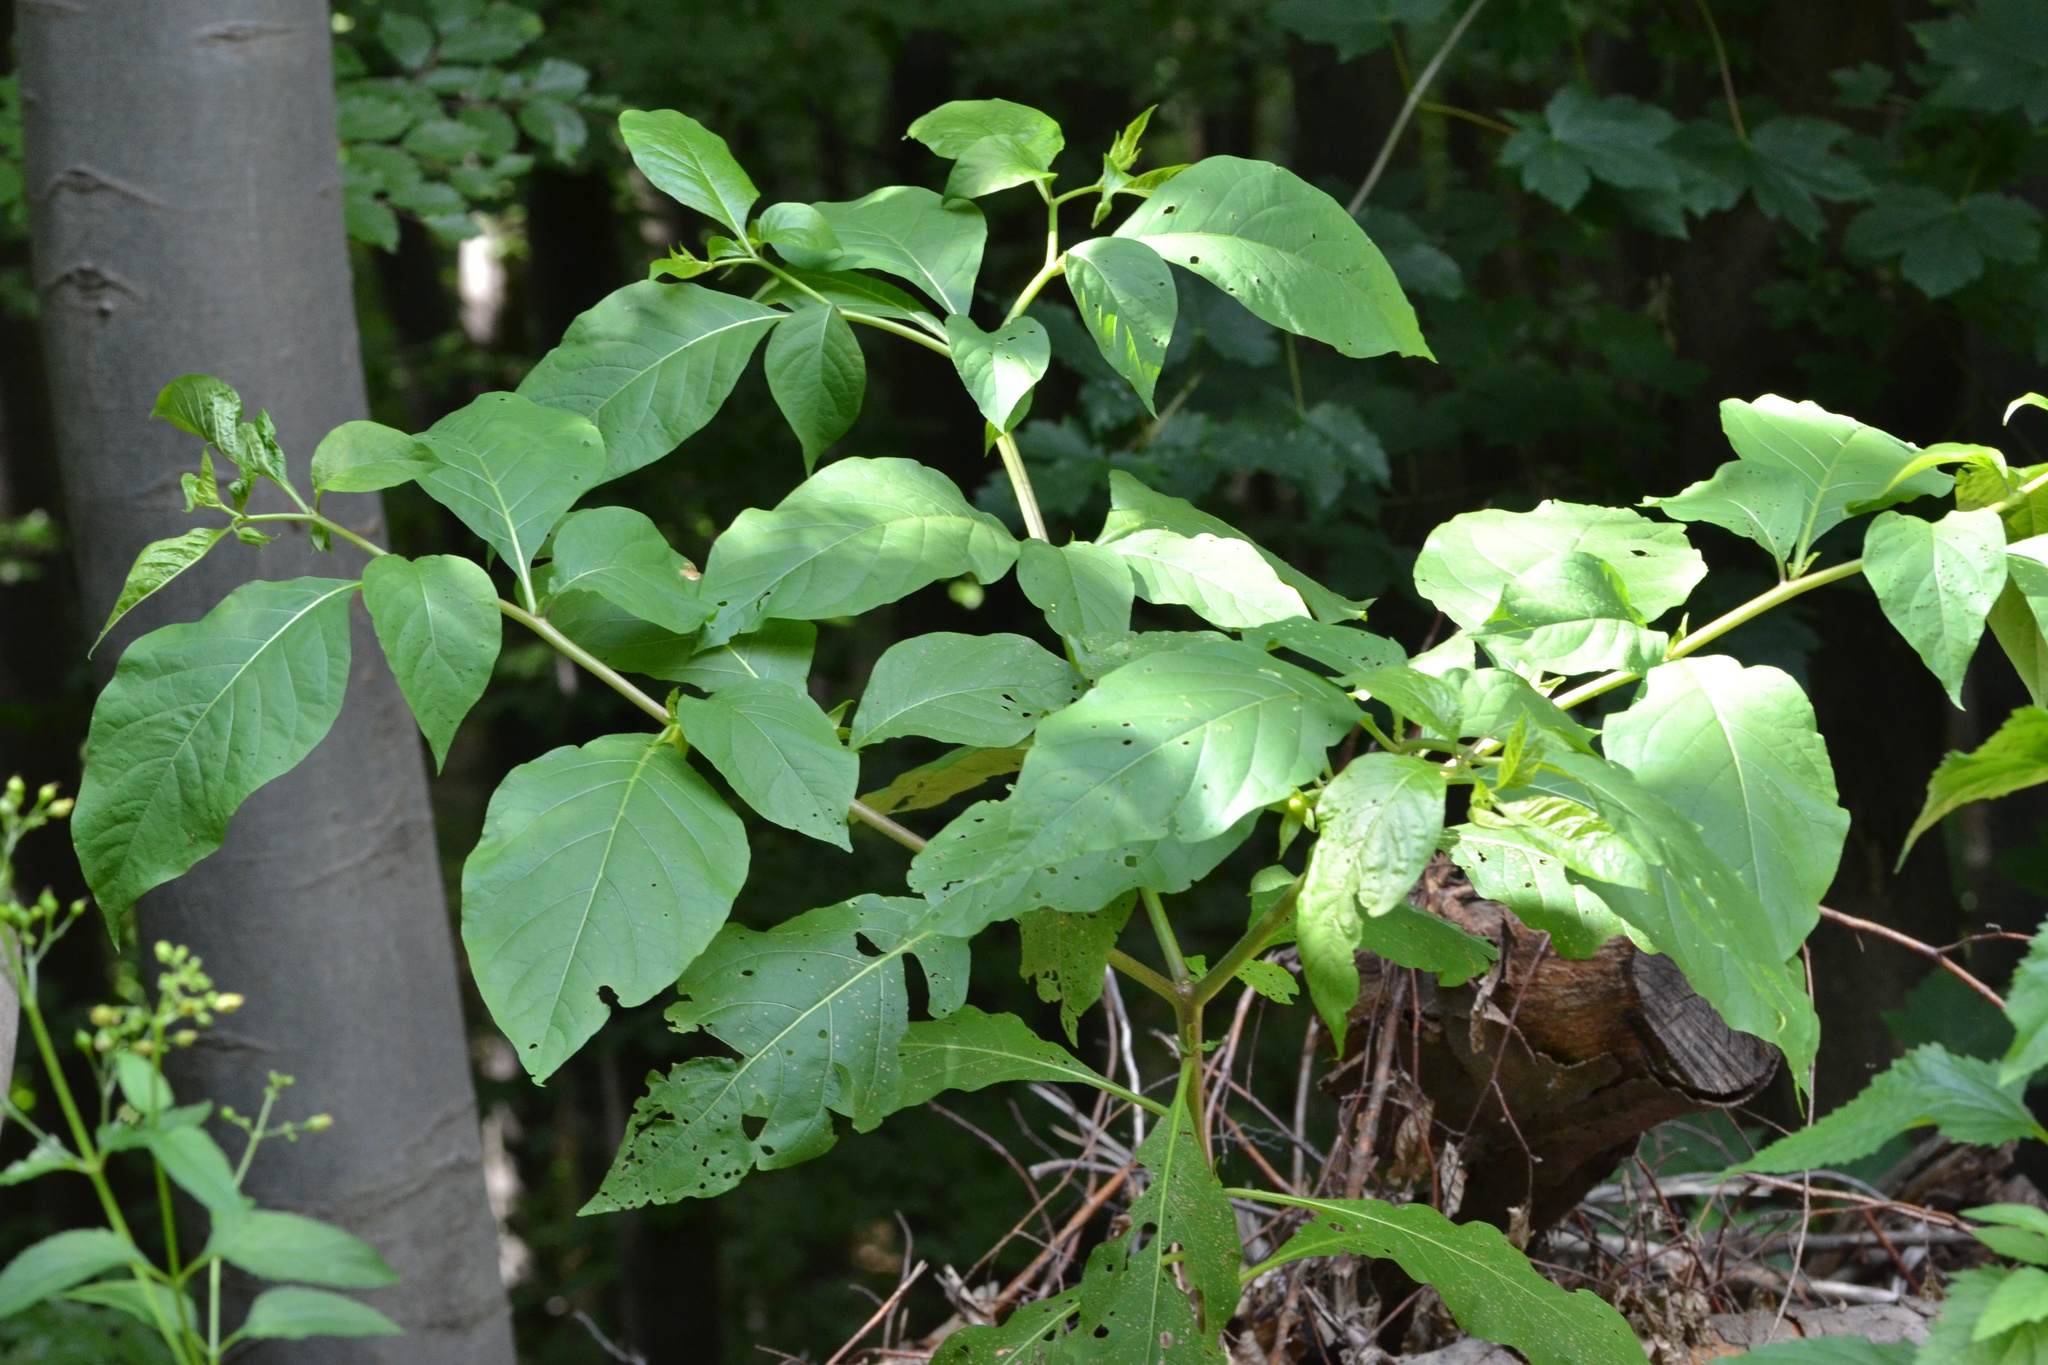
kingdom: Plantae
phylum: Tracheophyta
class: Magnoliopsida
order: Solanales
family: Solanaceae
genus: Atropa
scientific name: Atropa belladonna
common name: Deadly nightshade
